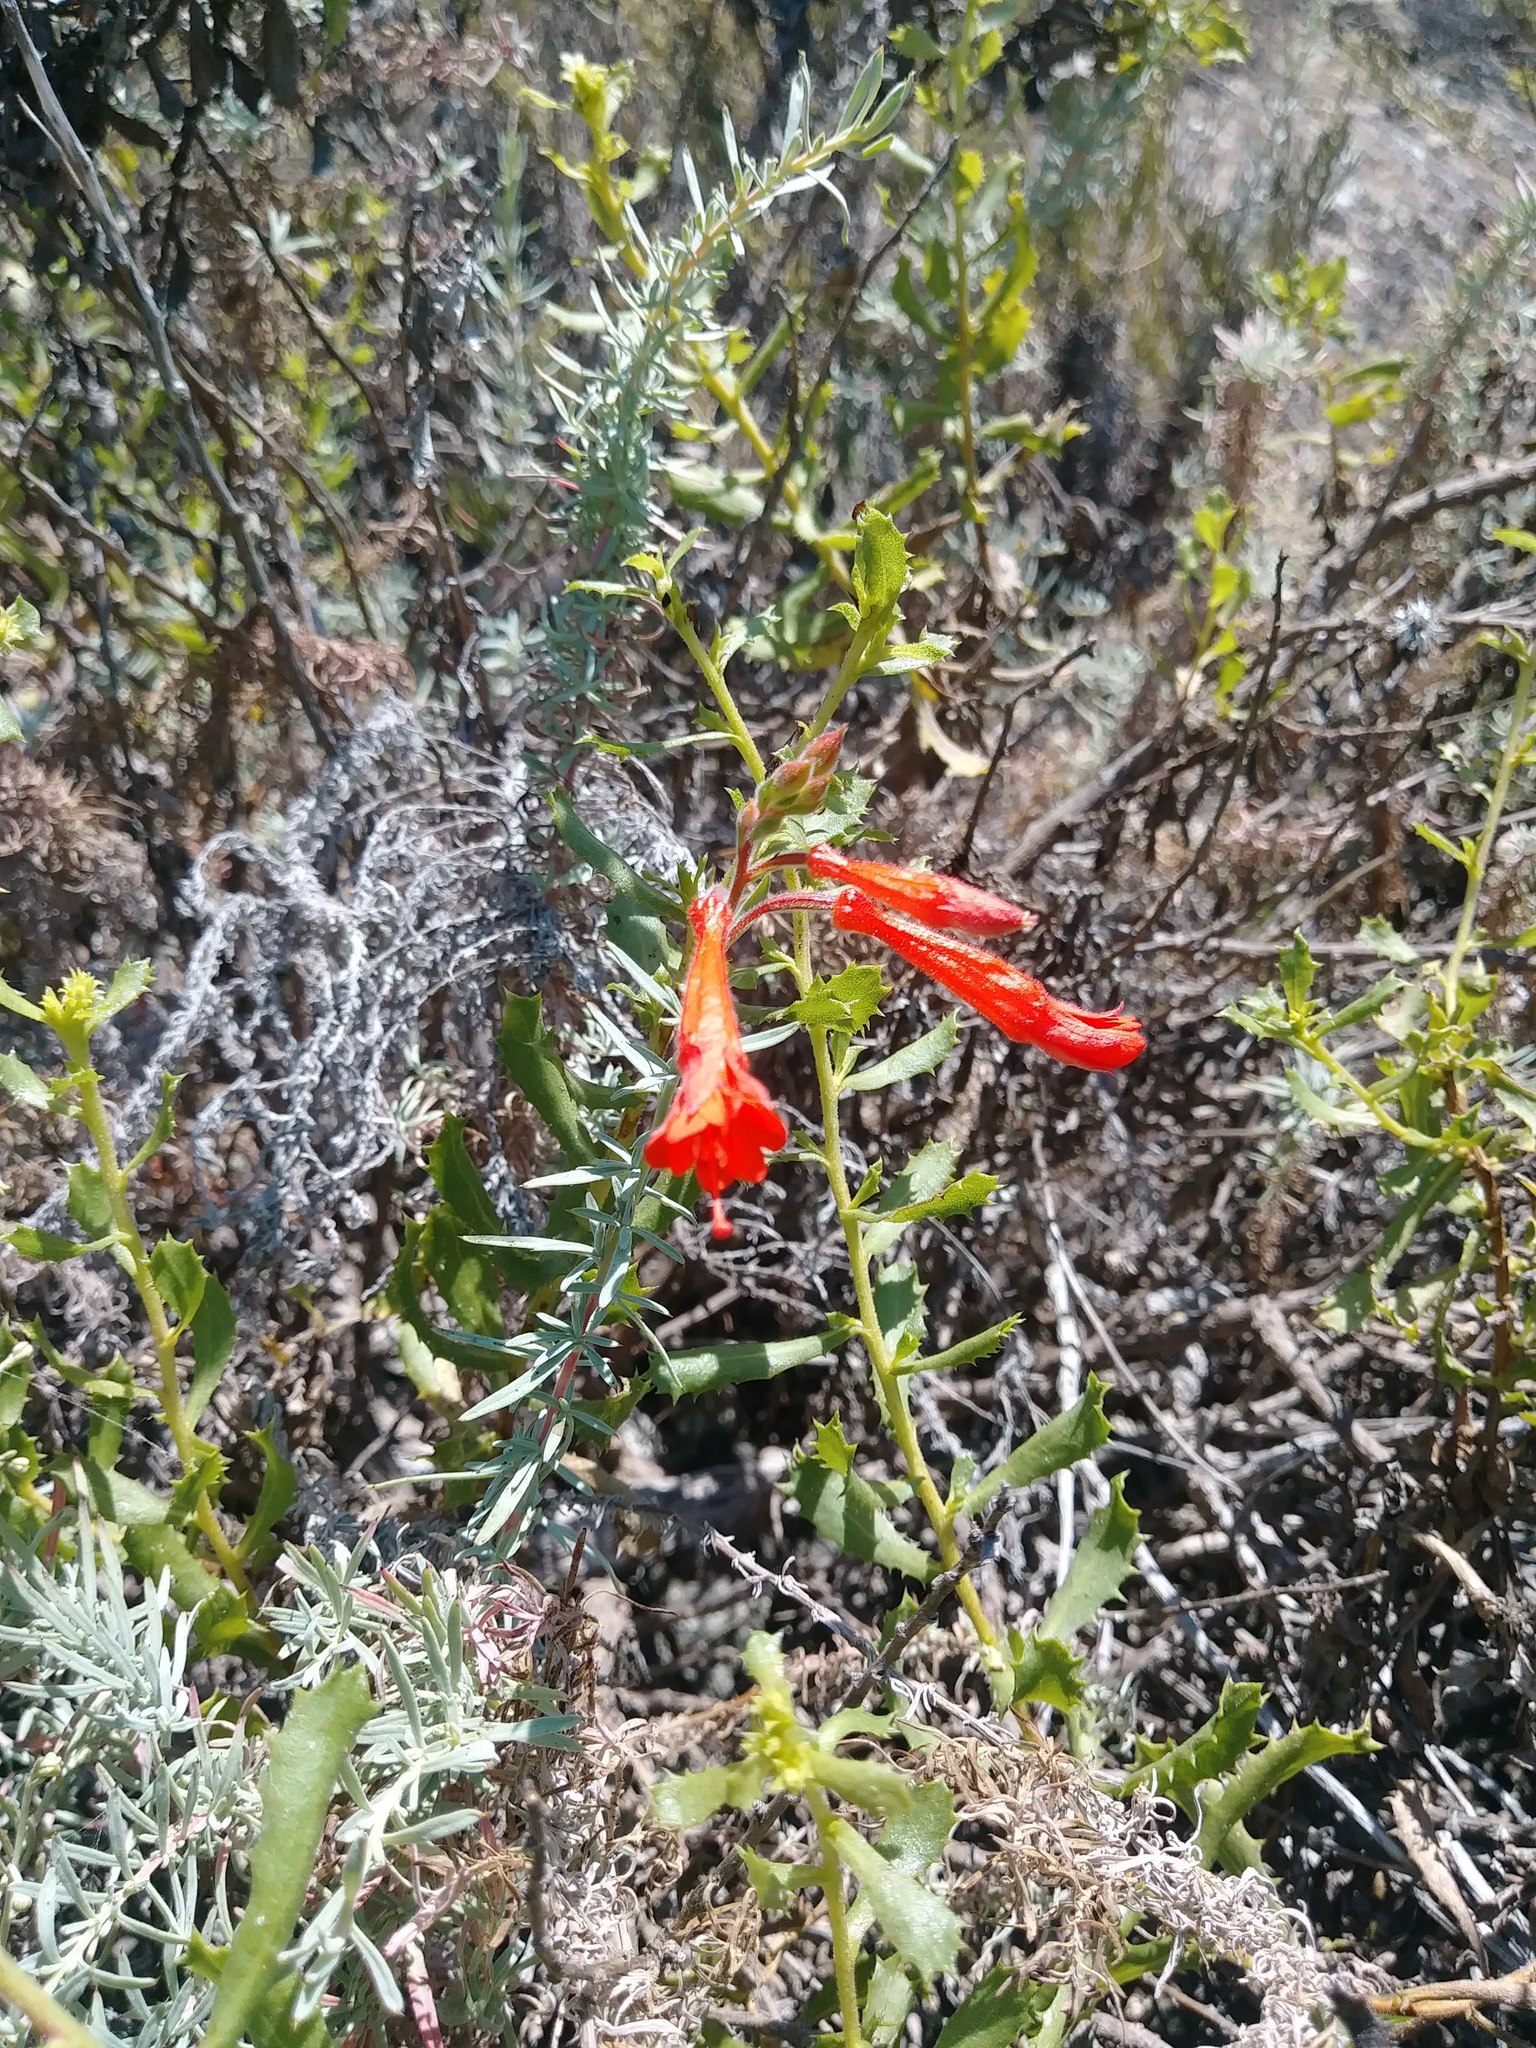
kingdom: Plantae
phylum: Tracheophyta
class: Magnoliopsida
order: Myrtales
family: Onagraceae
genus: Epilobium
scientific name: Epilobium canum
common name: California-fuchsia
